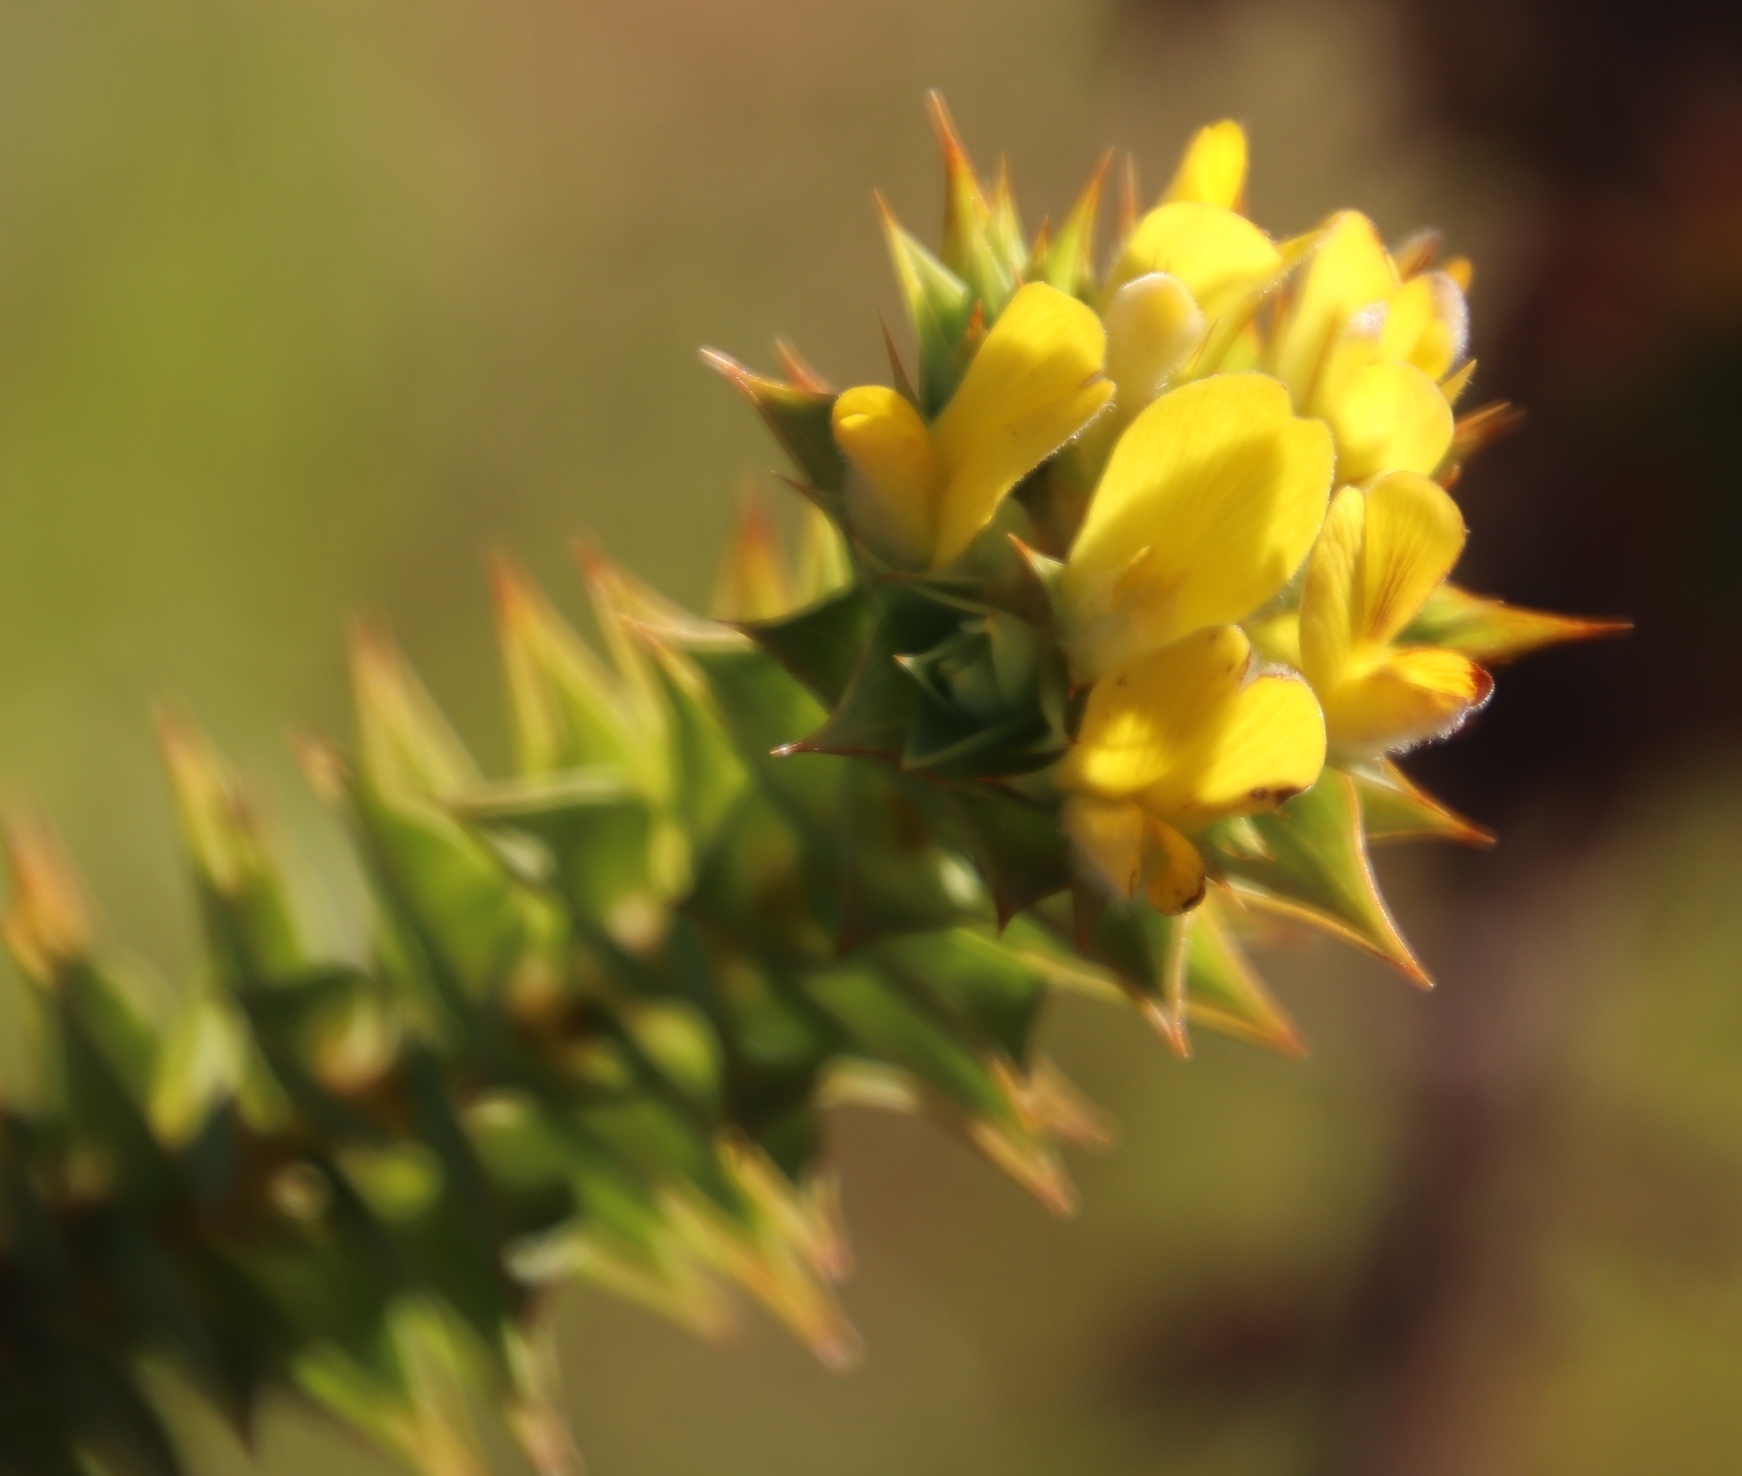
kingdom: Plantae
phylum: Tracheophyta
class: Magnoliopsida
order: Fabales
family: Fabaceae
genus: Aspalathus
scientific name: Aspalathus cordata
